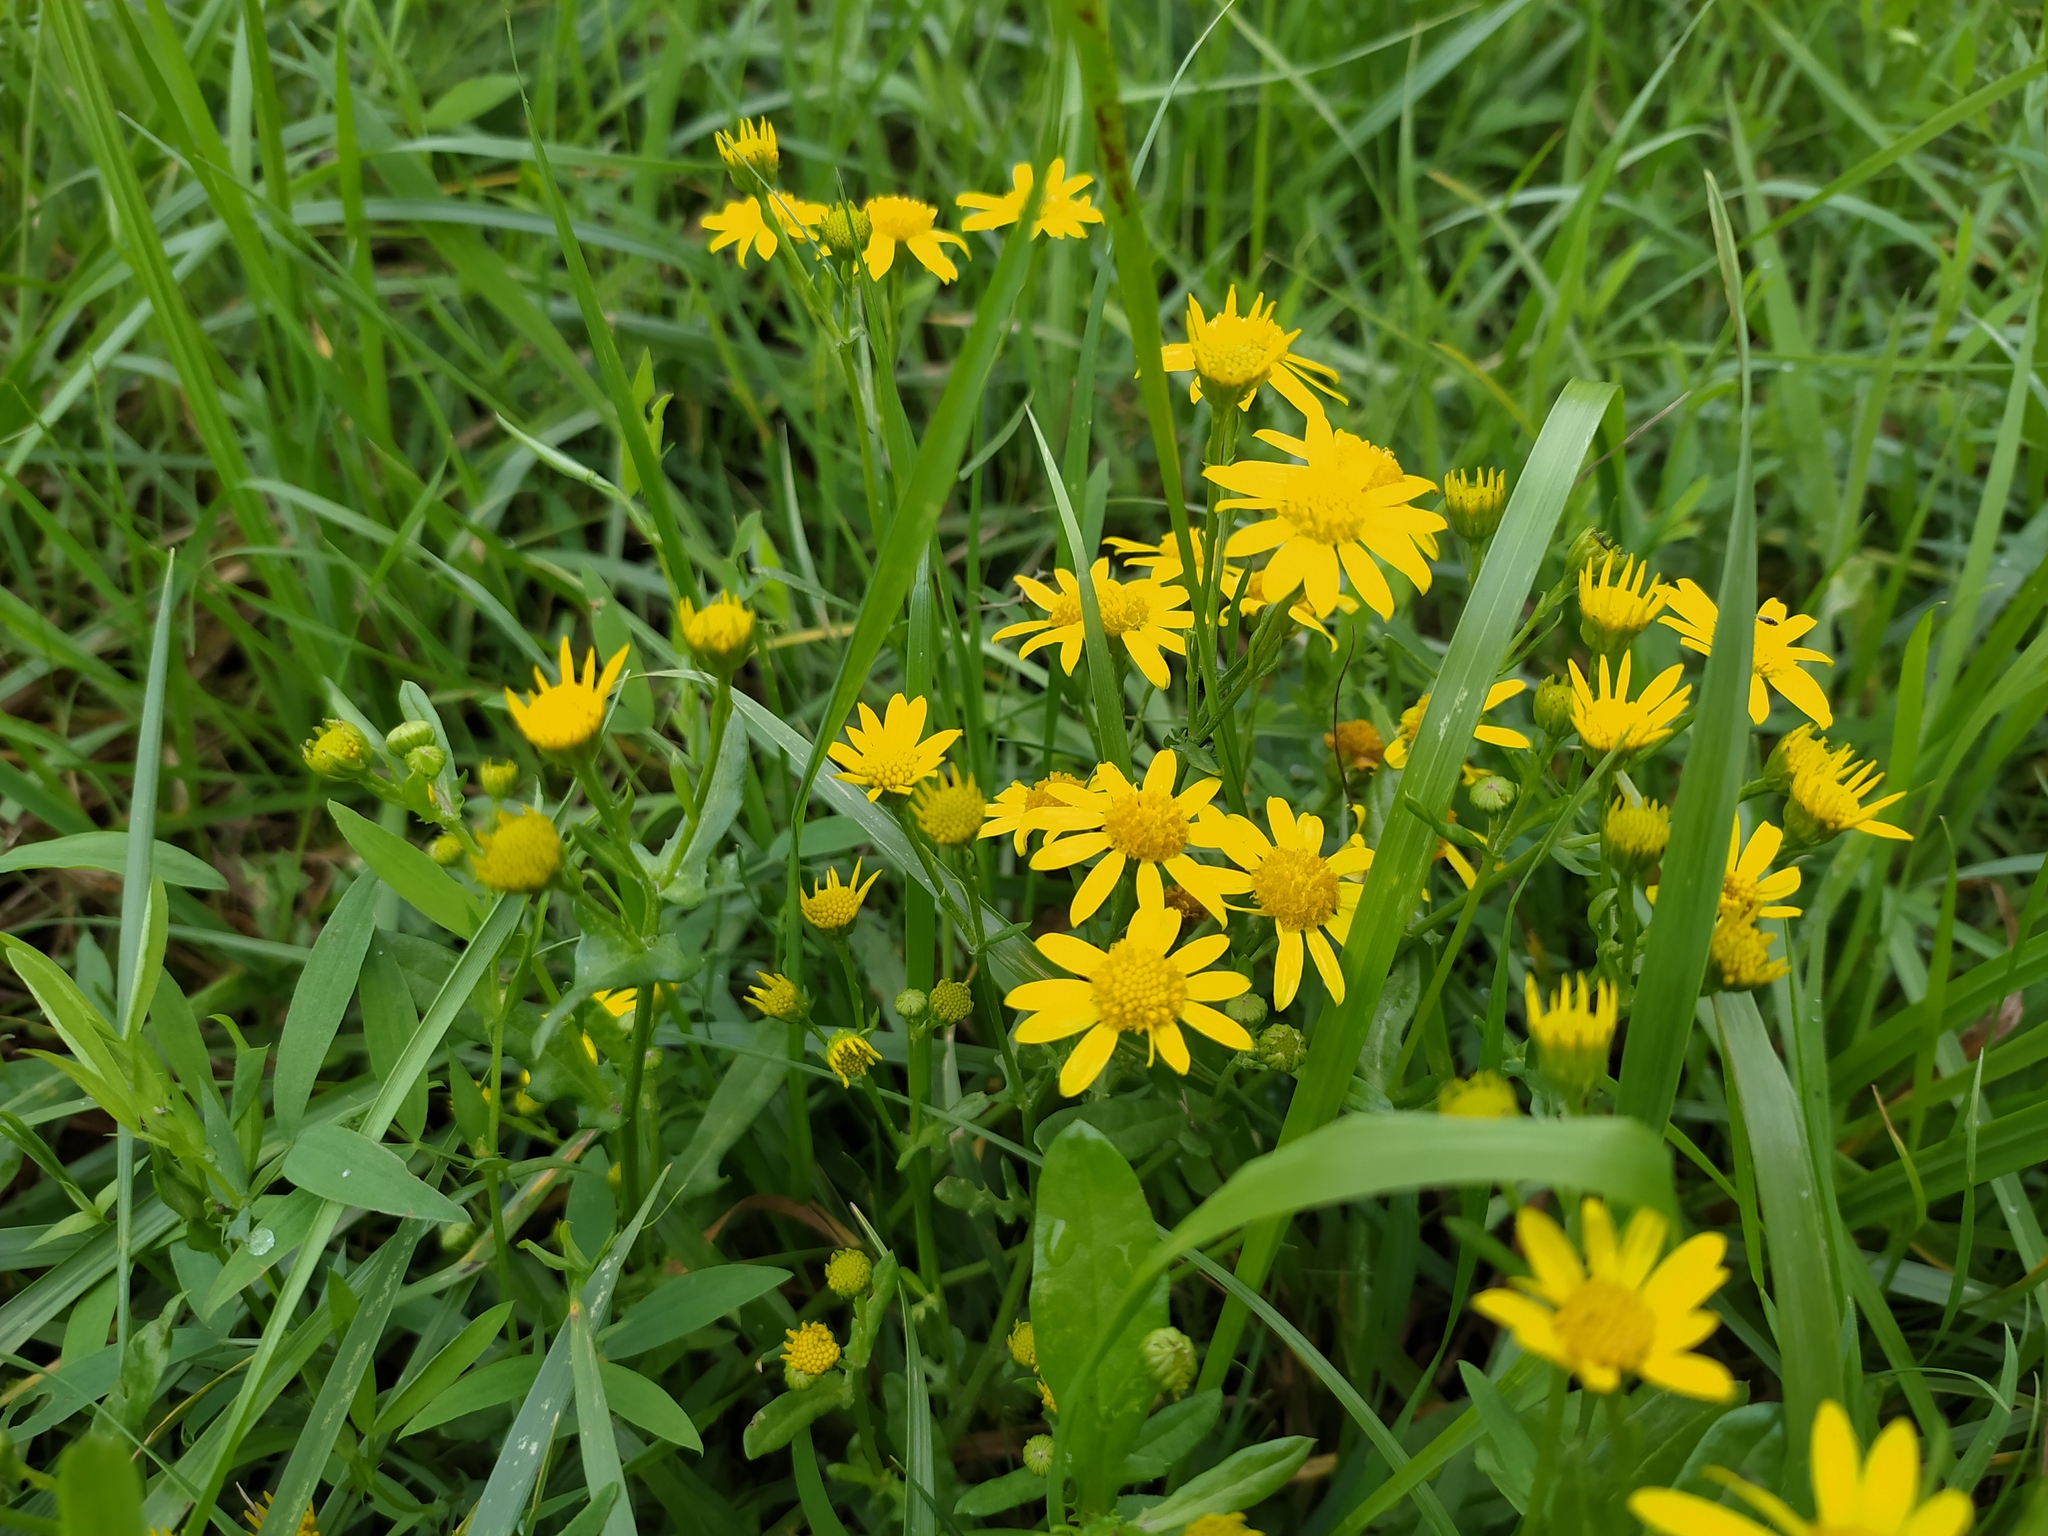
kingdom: Plantae
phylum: Tracheophyta
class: Magnoliopsida
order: Asterales
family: Asteraceae
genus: Jacobaea
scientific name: Jacobaea aquatica
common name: Water ragwort
